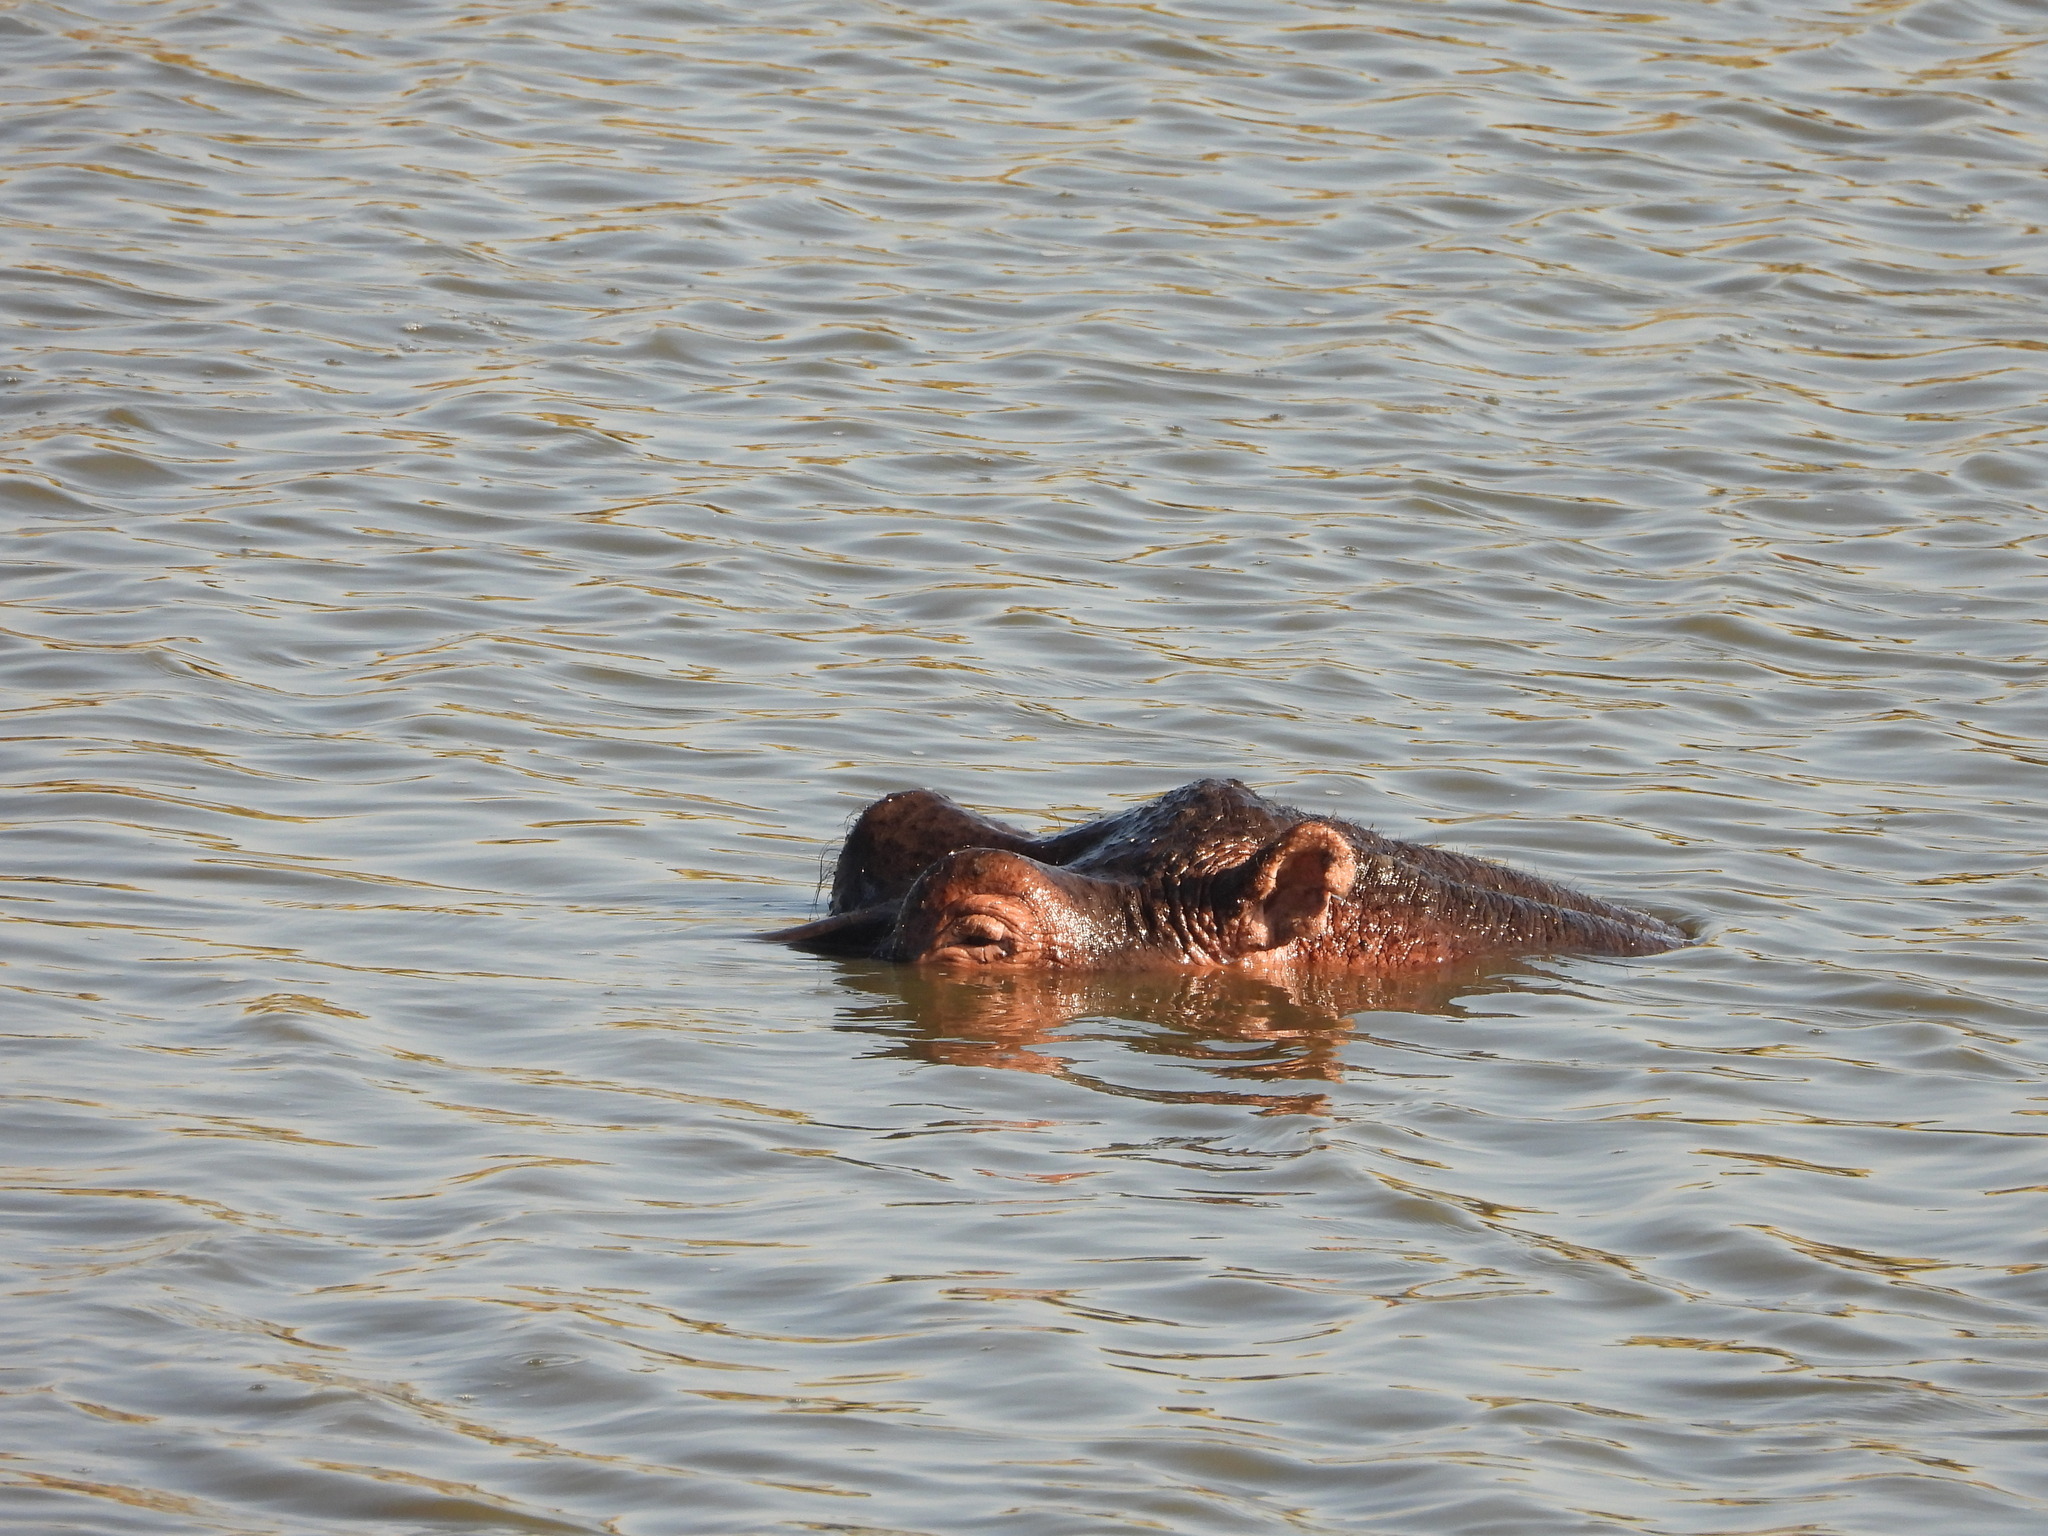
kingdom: Animalia
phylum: Chordata
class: Mammalia
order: Artiodactyla
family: Hippopotamidae
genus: Hippopotamus
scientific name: Hippopotamus amphibius
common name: Common hippopotamus
